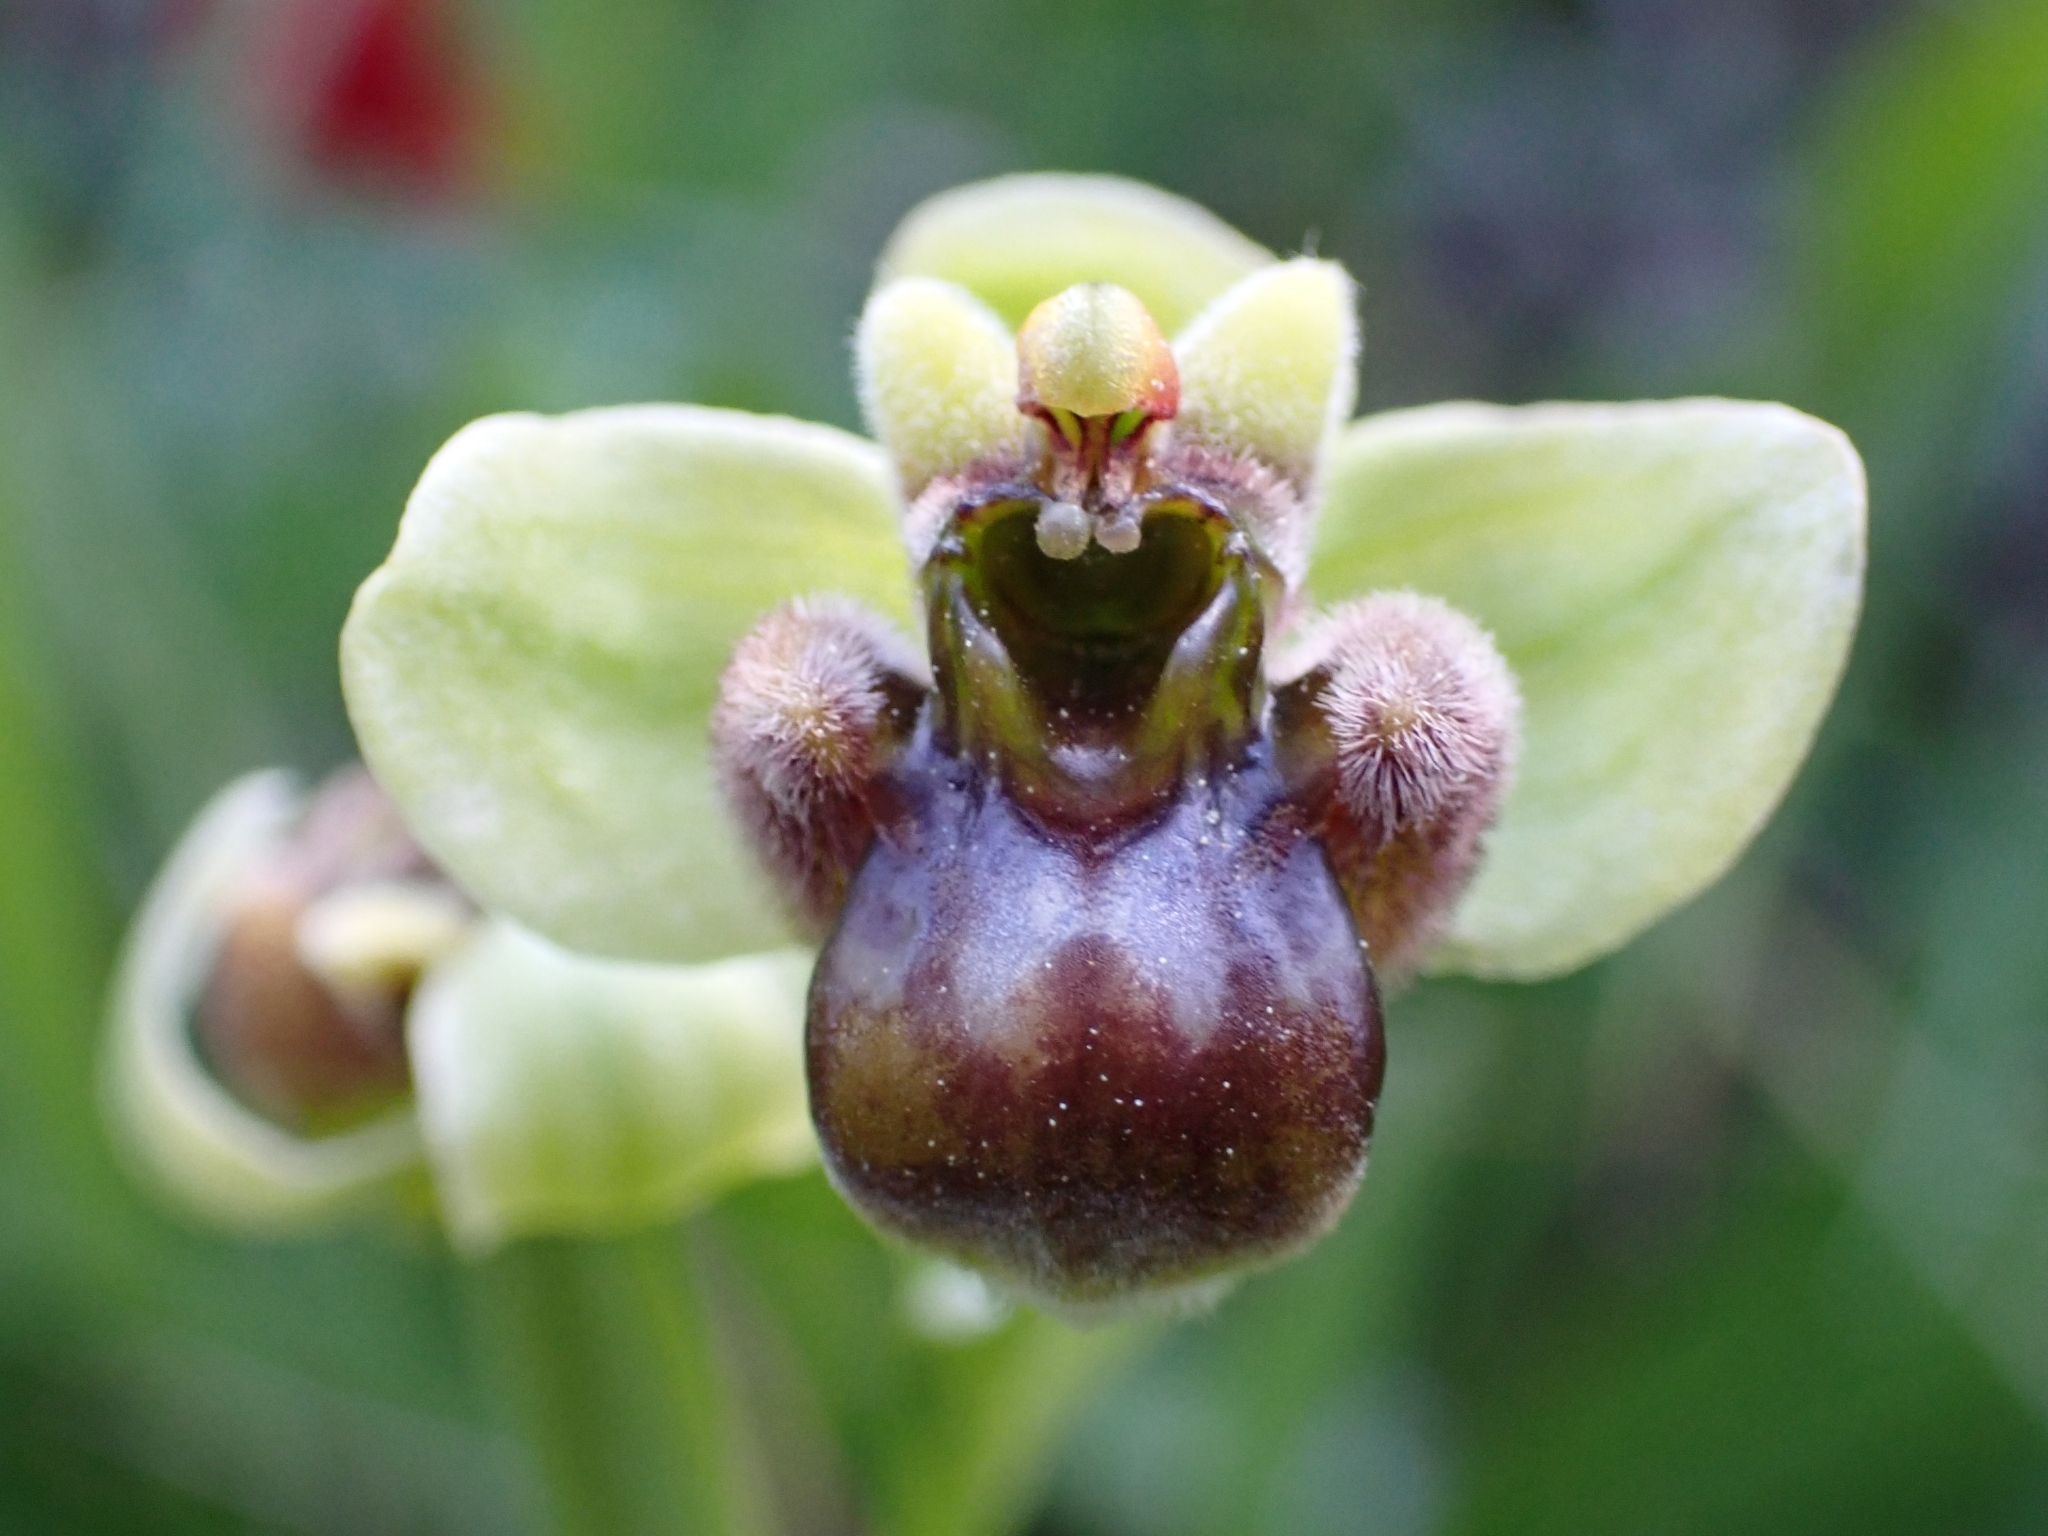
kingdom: Plantae
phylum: Tracheophyta
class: Liliopsida
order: Asparagales
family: Orchidaceae
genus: Ophrys
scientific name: Ophrys bombyliflora
